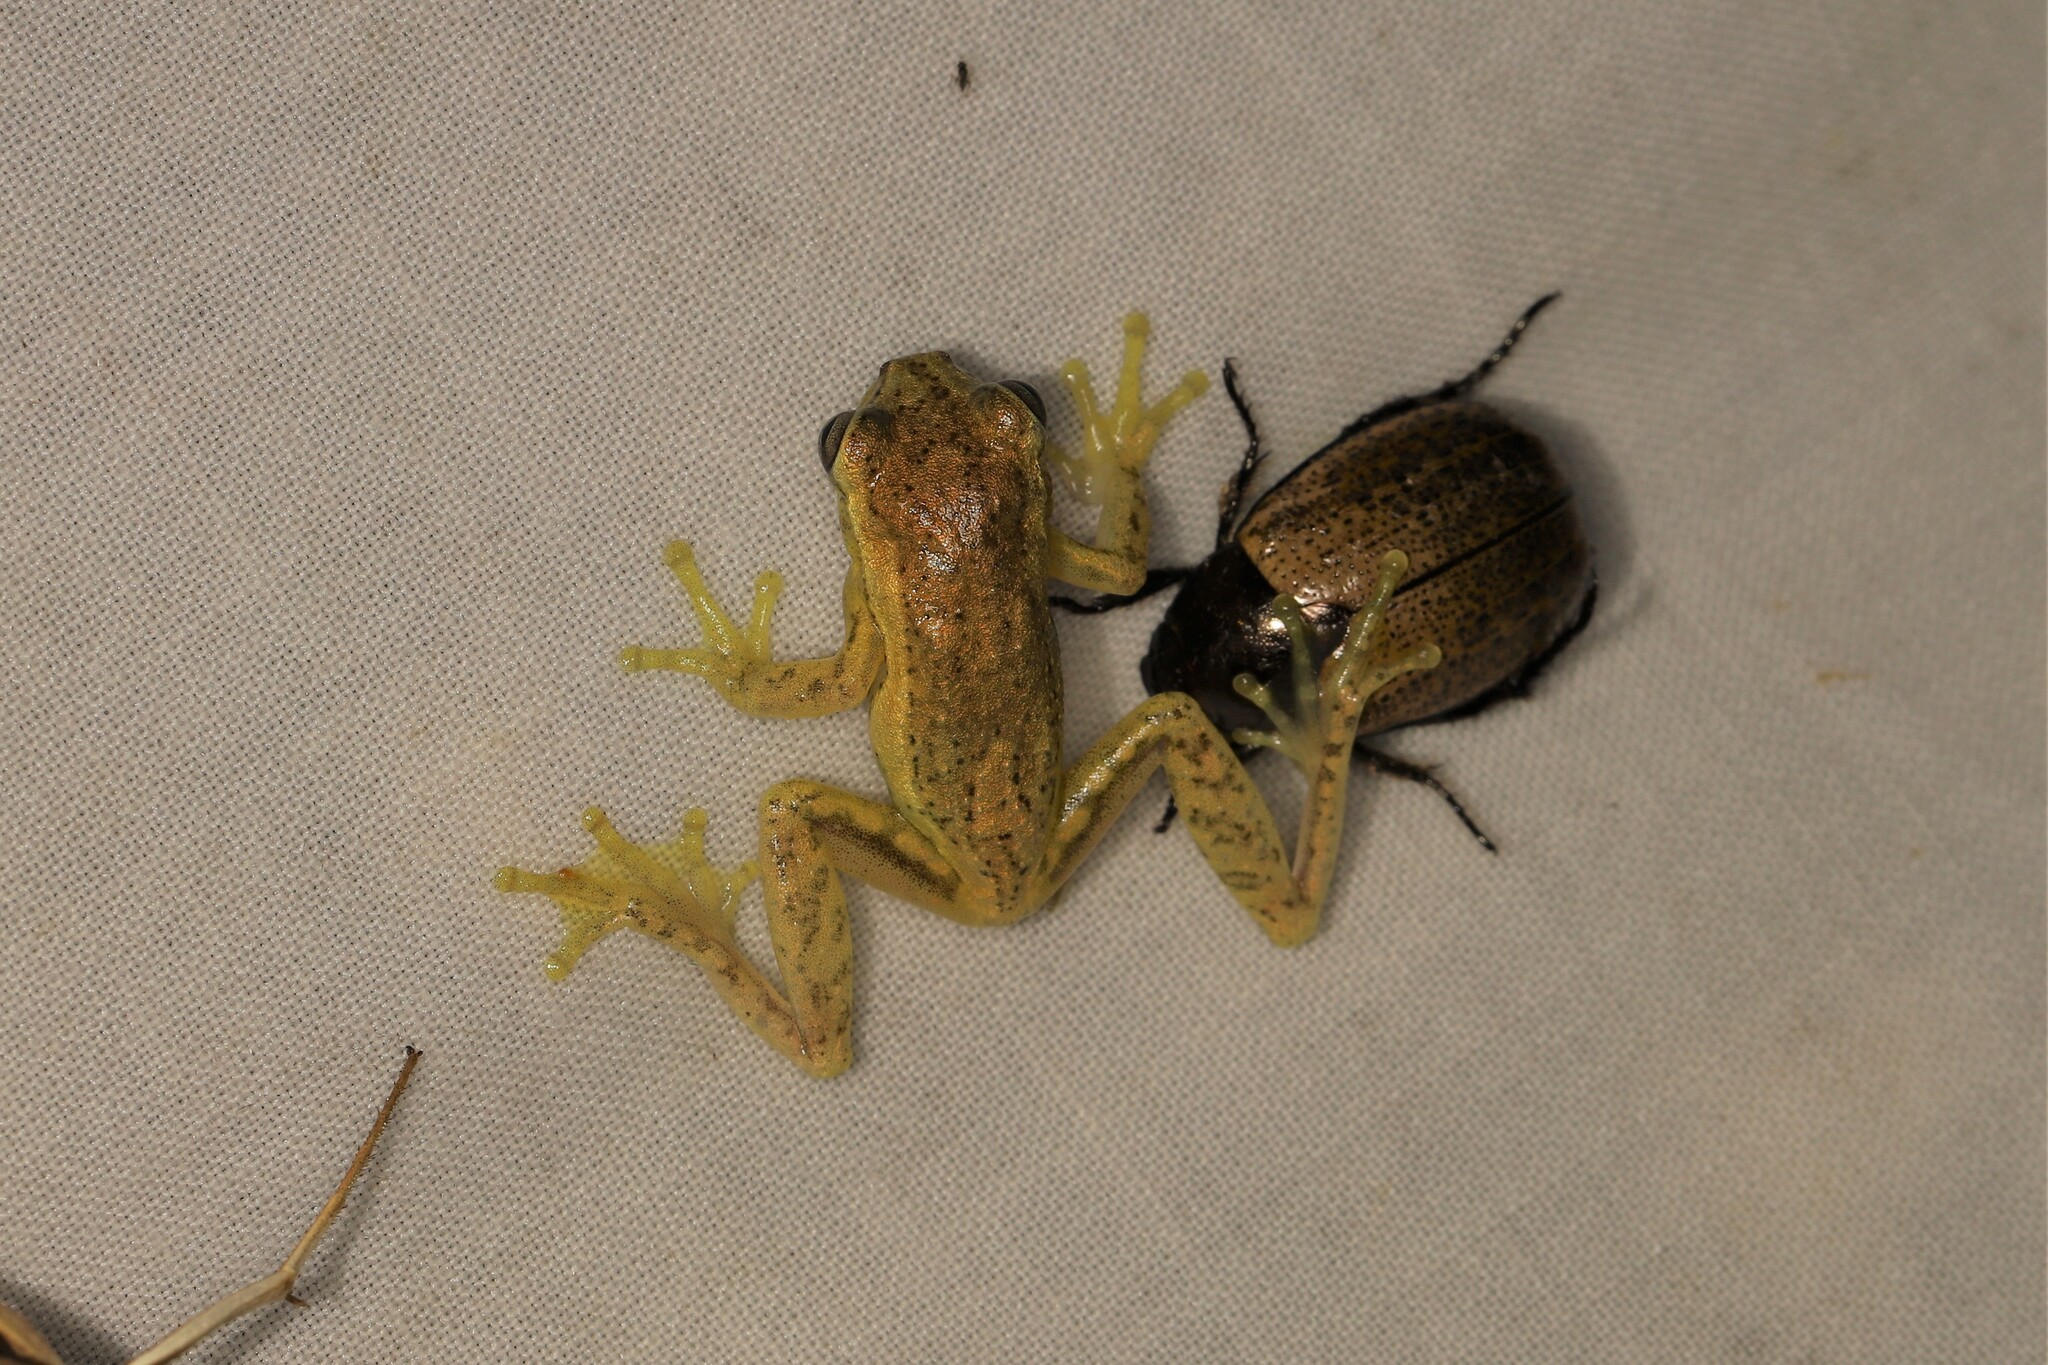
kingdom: Animalia
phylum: Chordata
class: Amphibia
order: Anura
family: Hylidae
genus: Dendropsophus
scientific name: Dendropsophus columbianus
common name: Boettger's colombian treefrog
